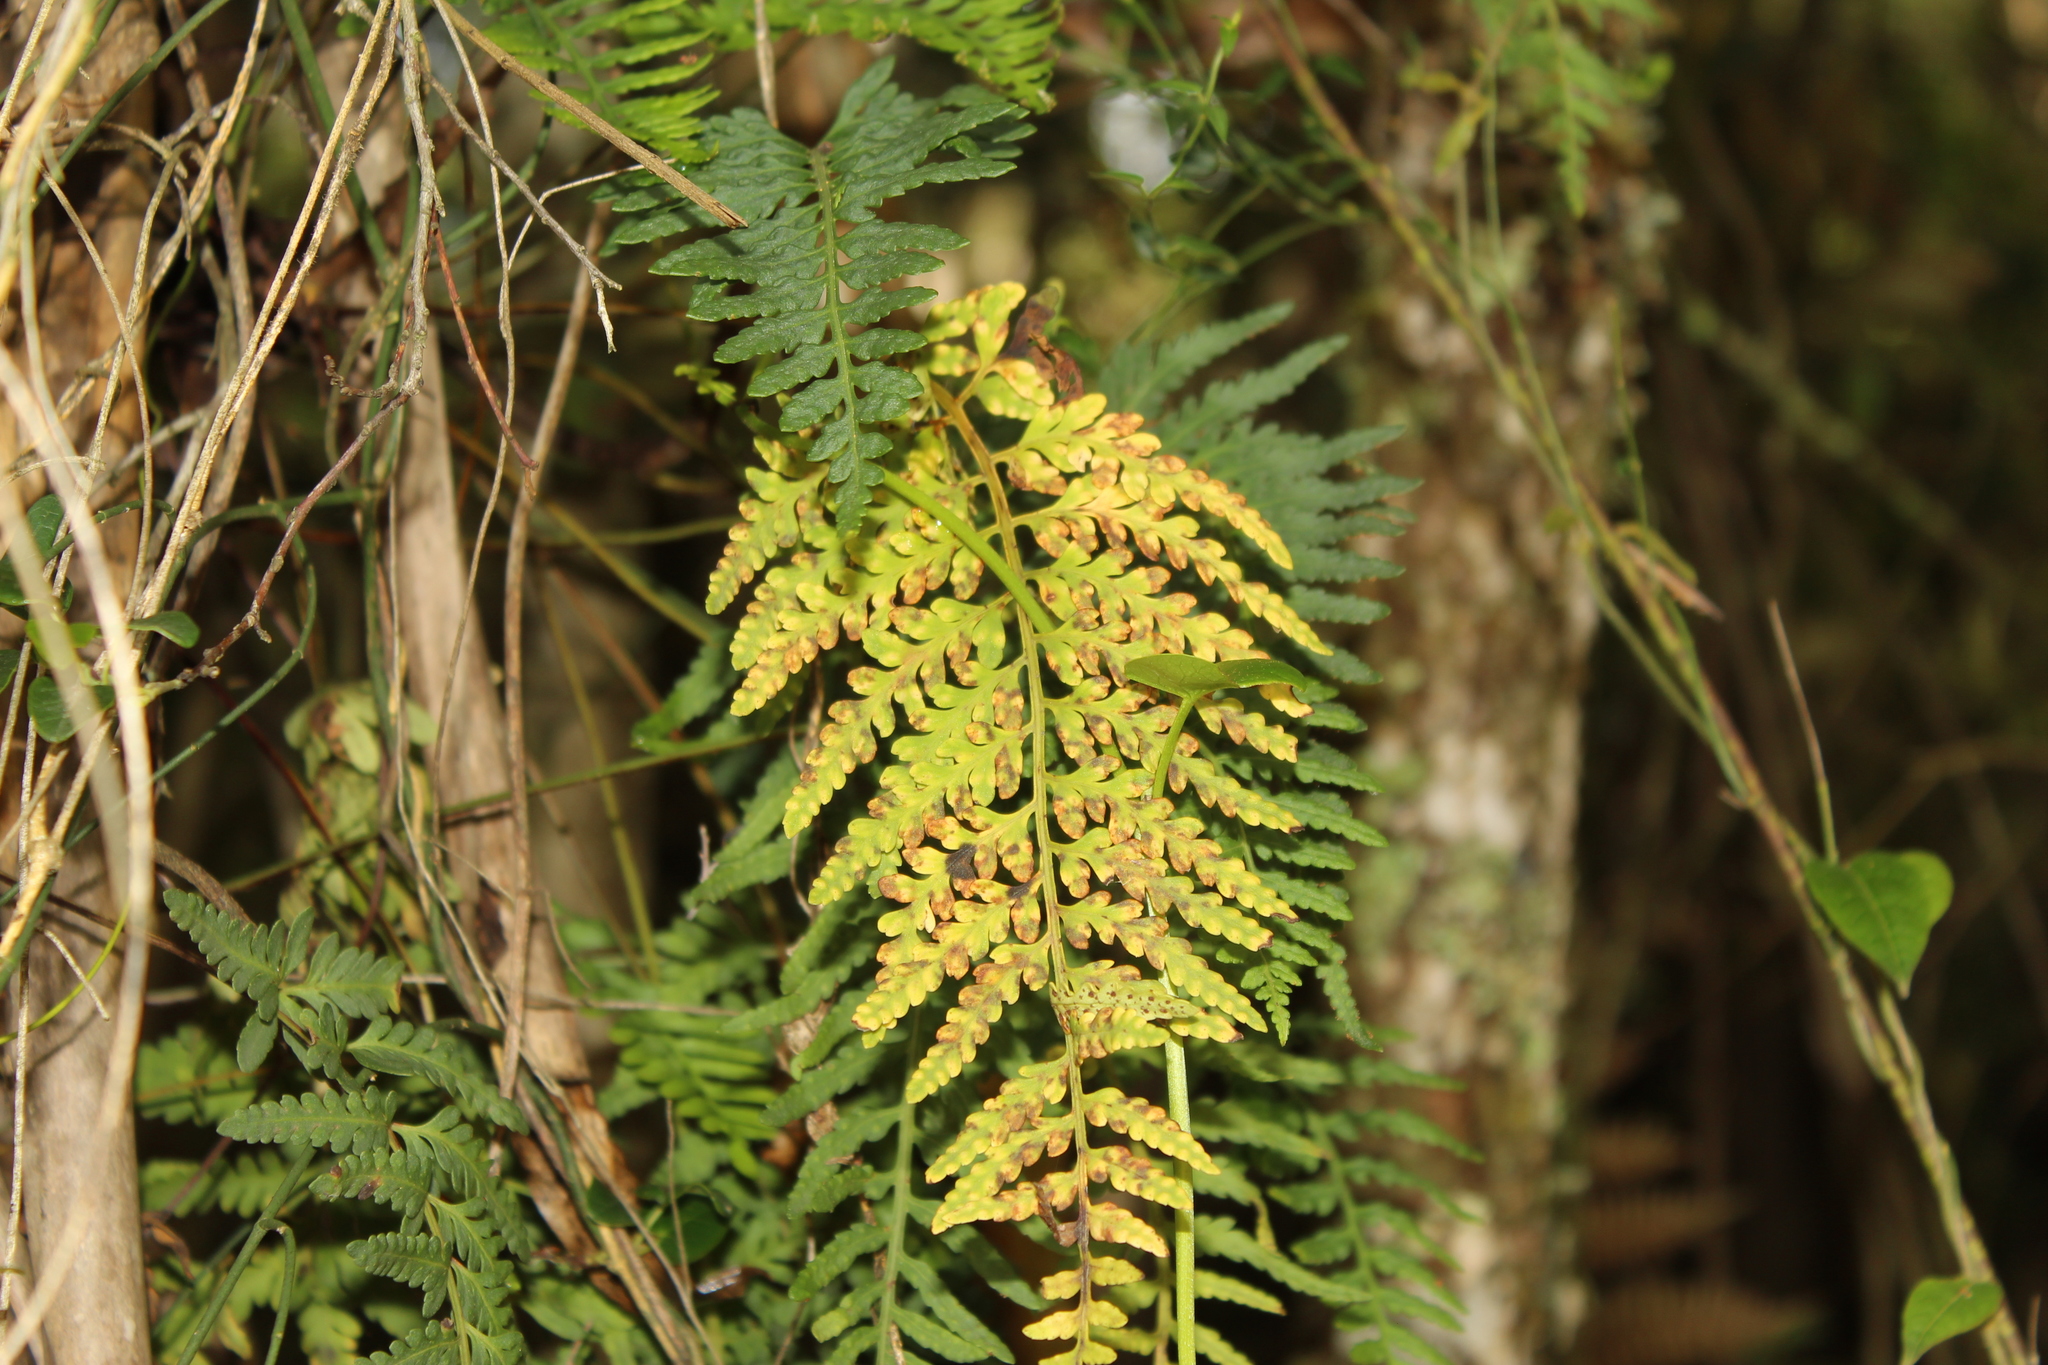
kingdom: Plantae
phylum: Tracheophyta
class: Polypodiopsida
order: Polypodiales
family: Polypodiaceae
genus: Pleopeltis
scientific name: Pleopeltis murora
